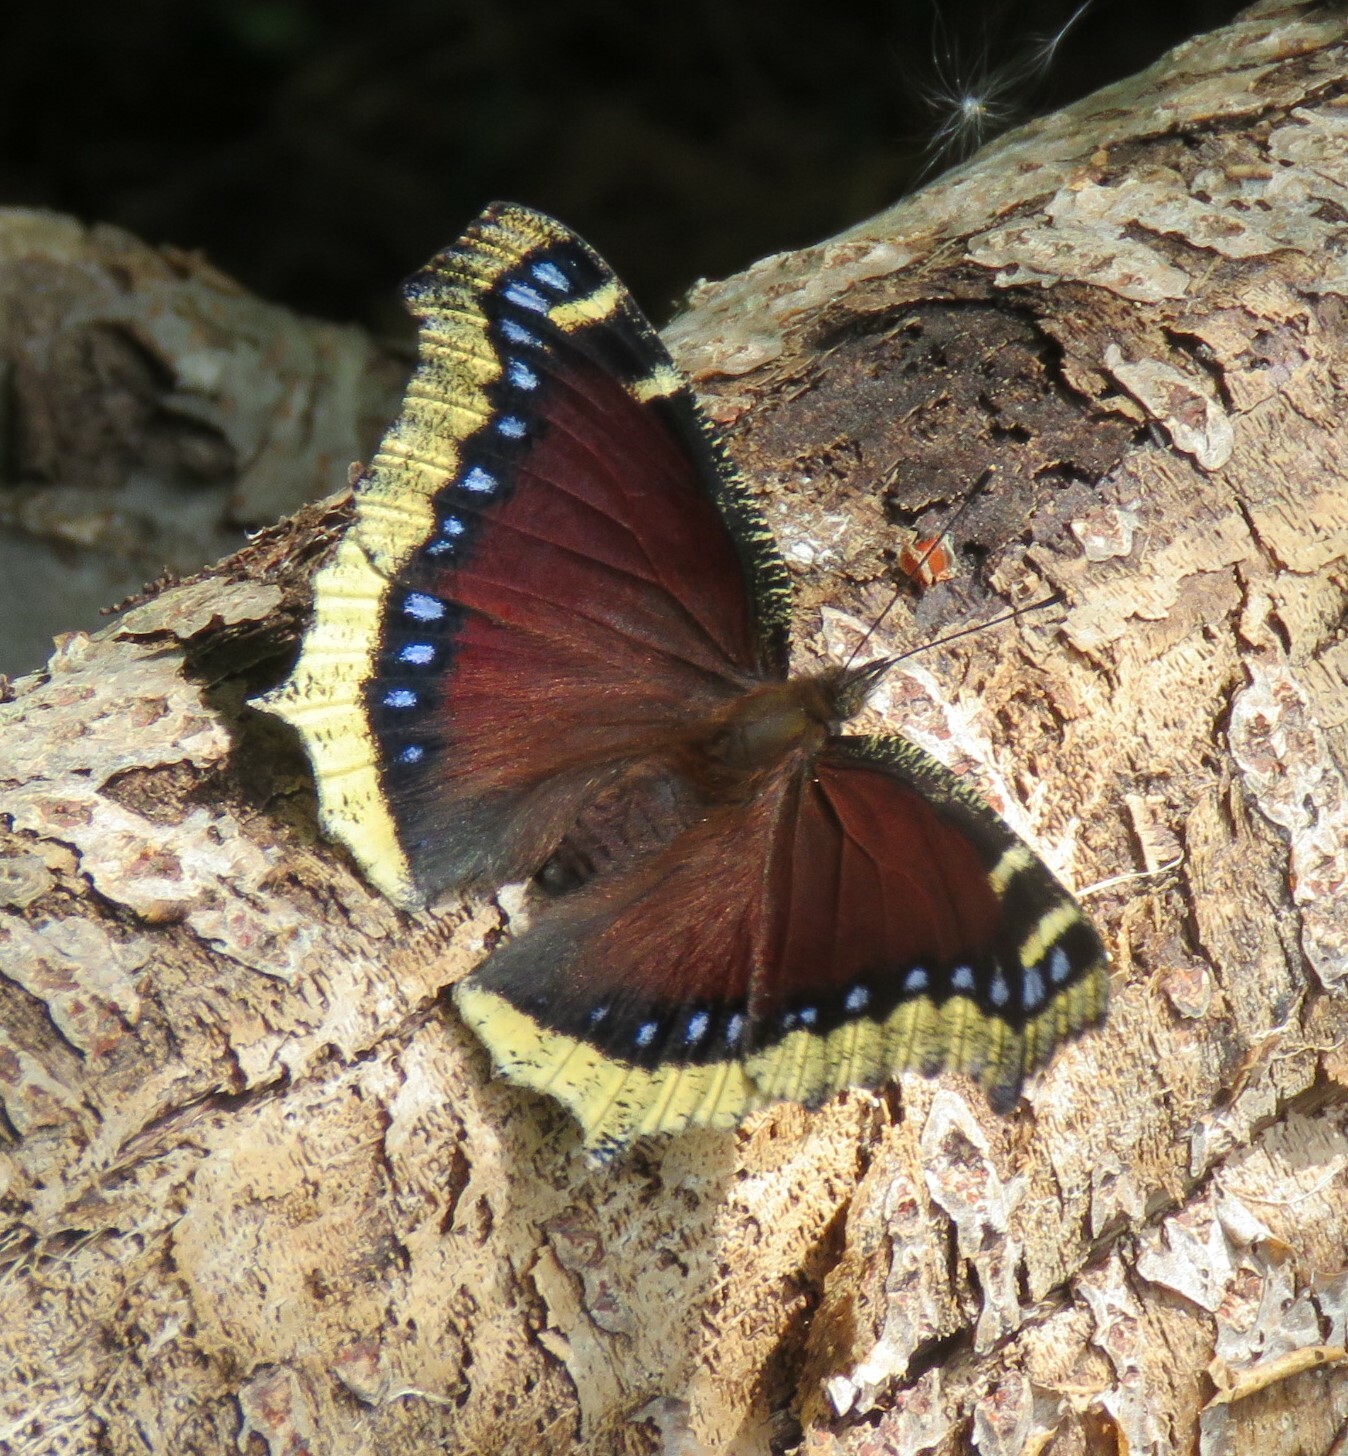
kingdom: Animalia
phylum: Arthropoda
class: Insecta
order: Lepidoptera
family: Nymphalidae
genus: Nymphalis
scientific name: Nymphalis antiopa
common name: Camberwell beauty
